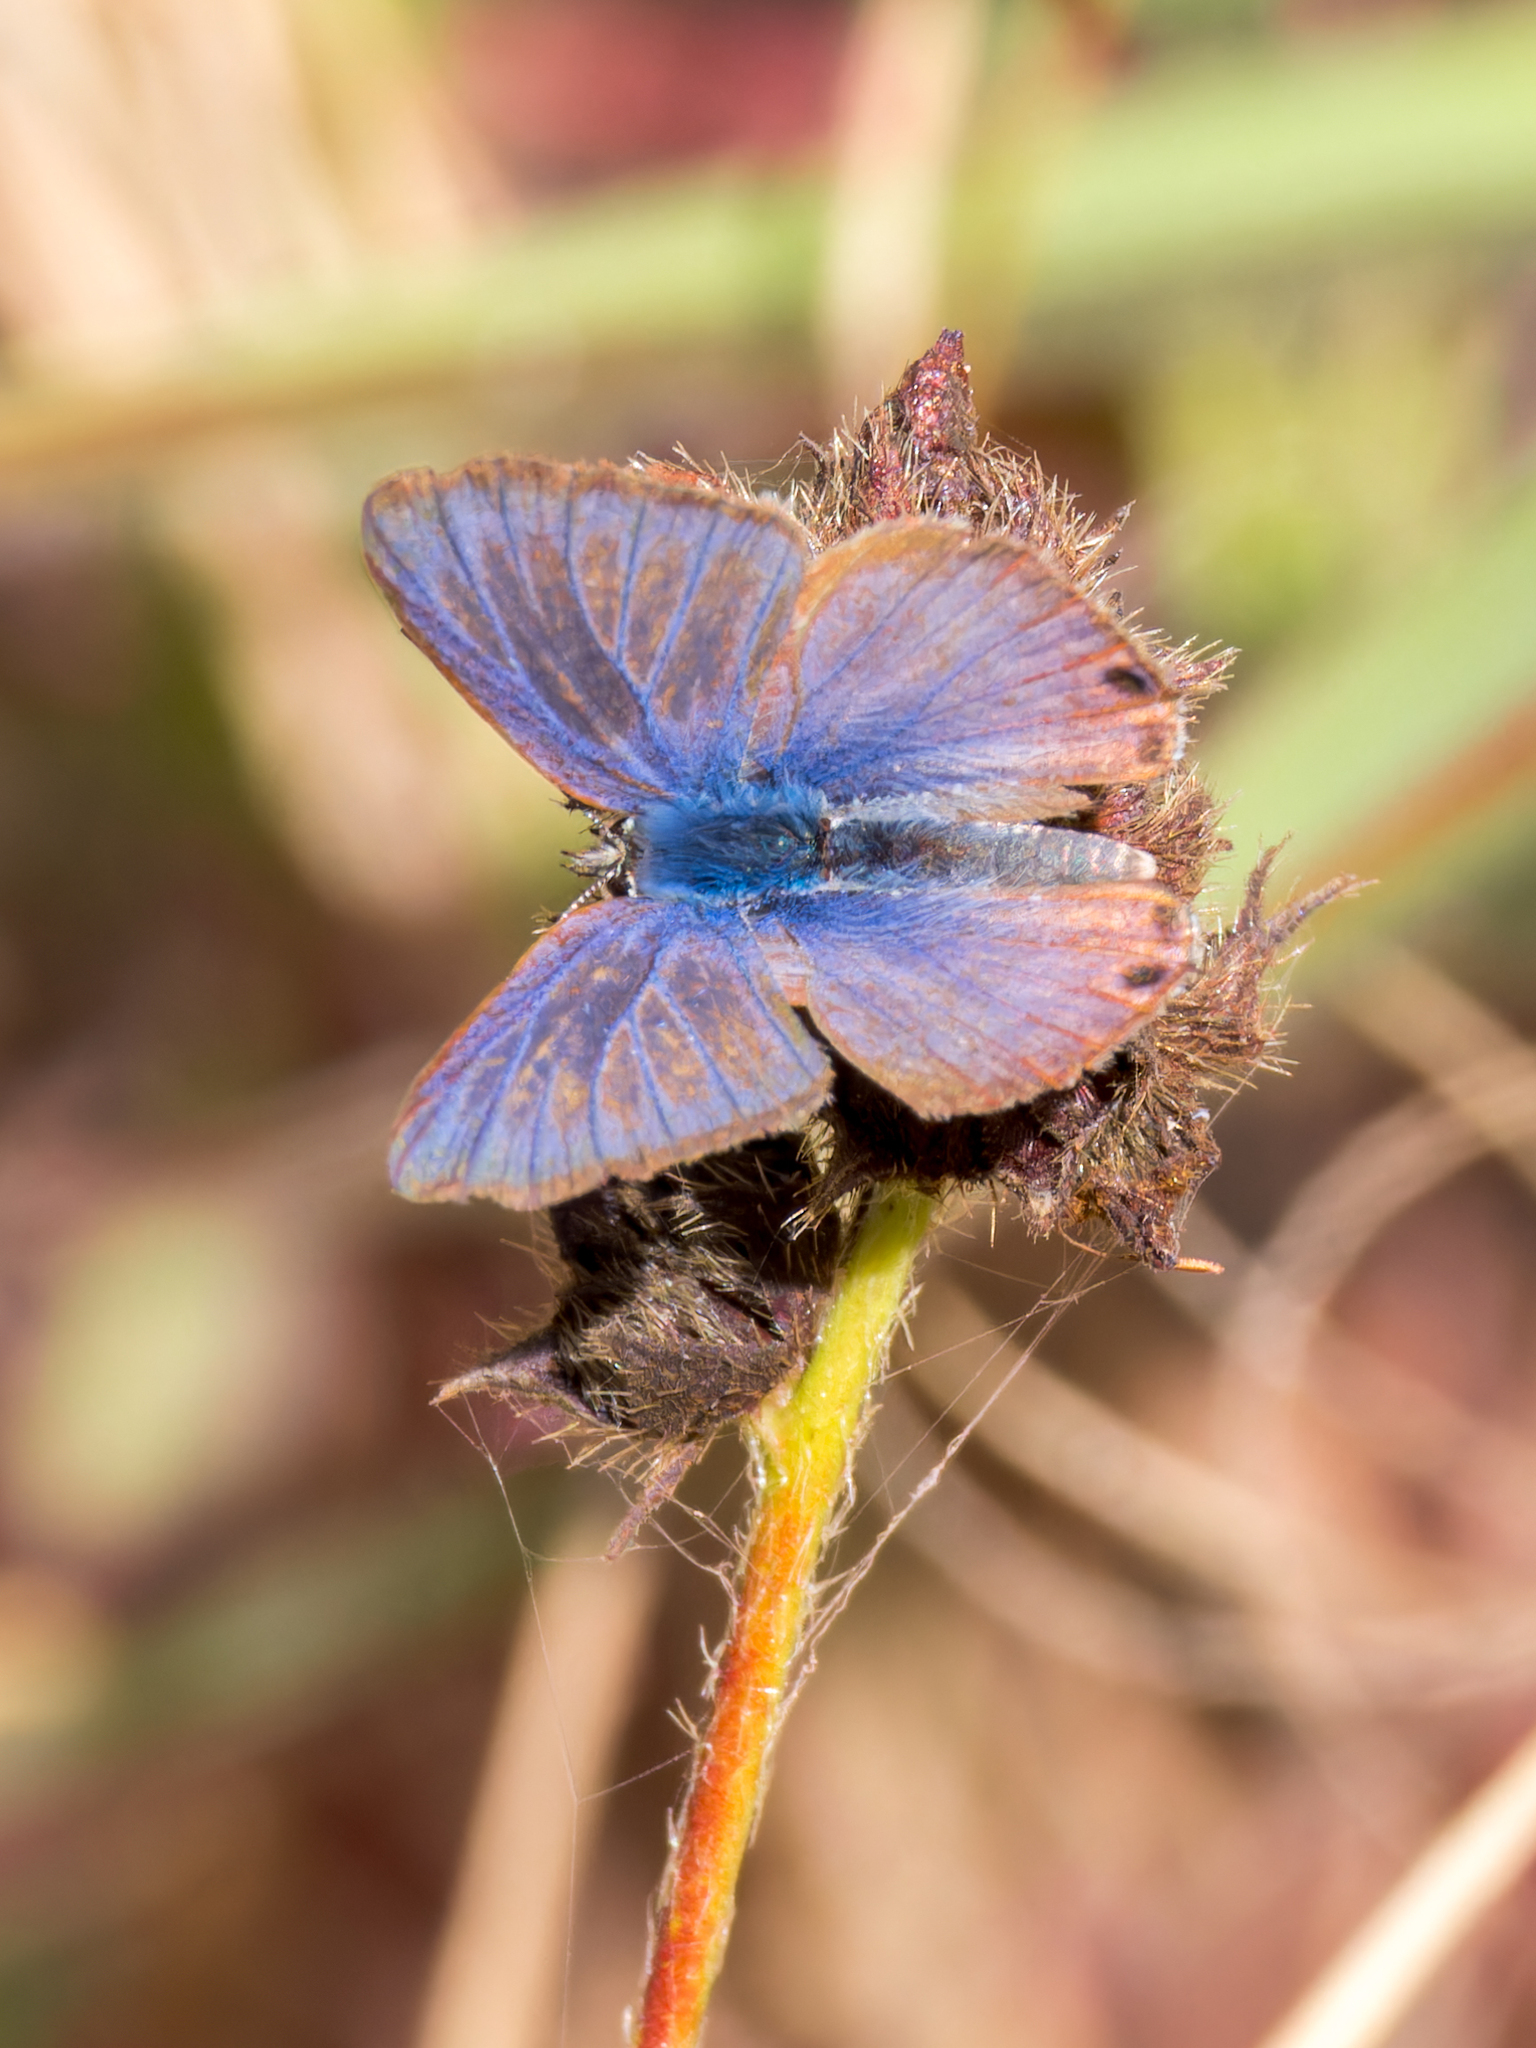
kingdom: Animalia
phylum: Arthropoda
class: Insecta
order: Lepidoptera
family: Lycaenidae
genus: Lampides
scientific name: Lampides boeticus
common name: Long-tailed blue
